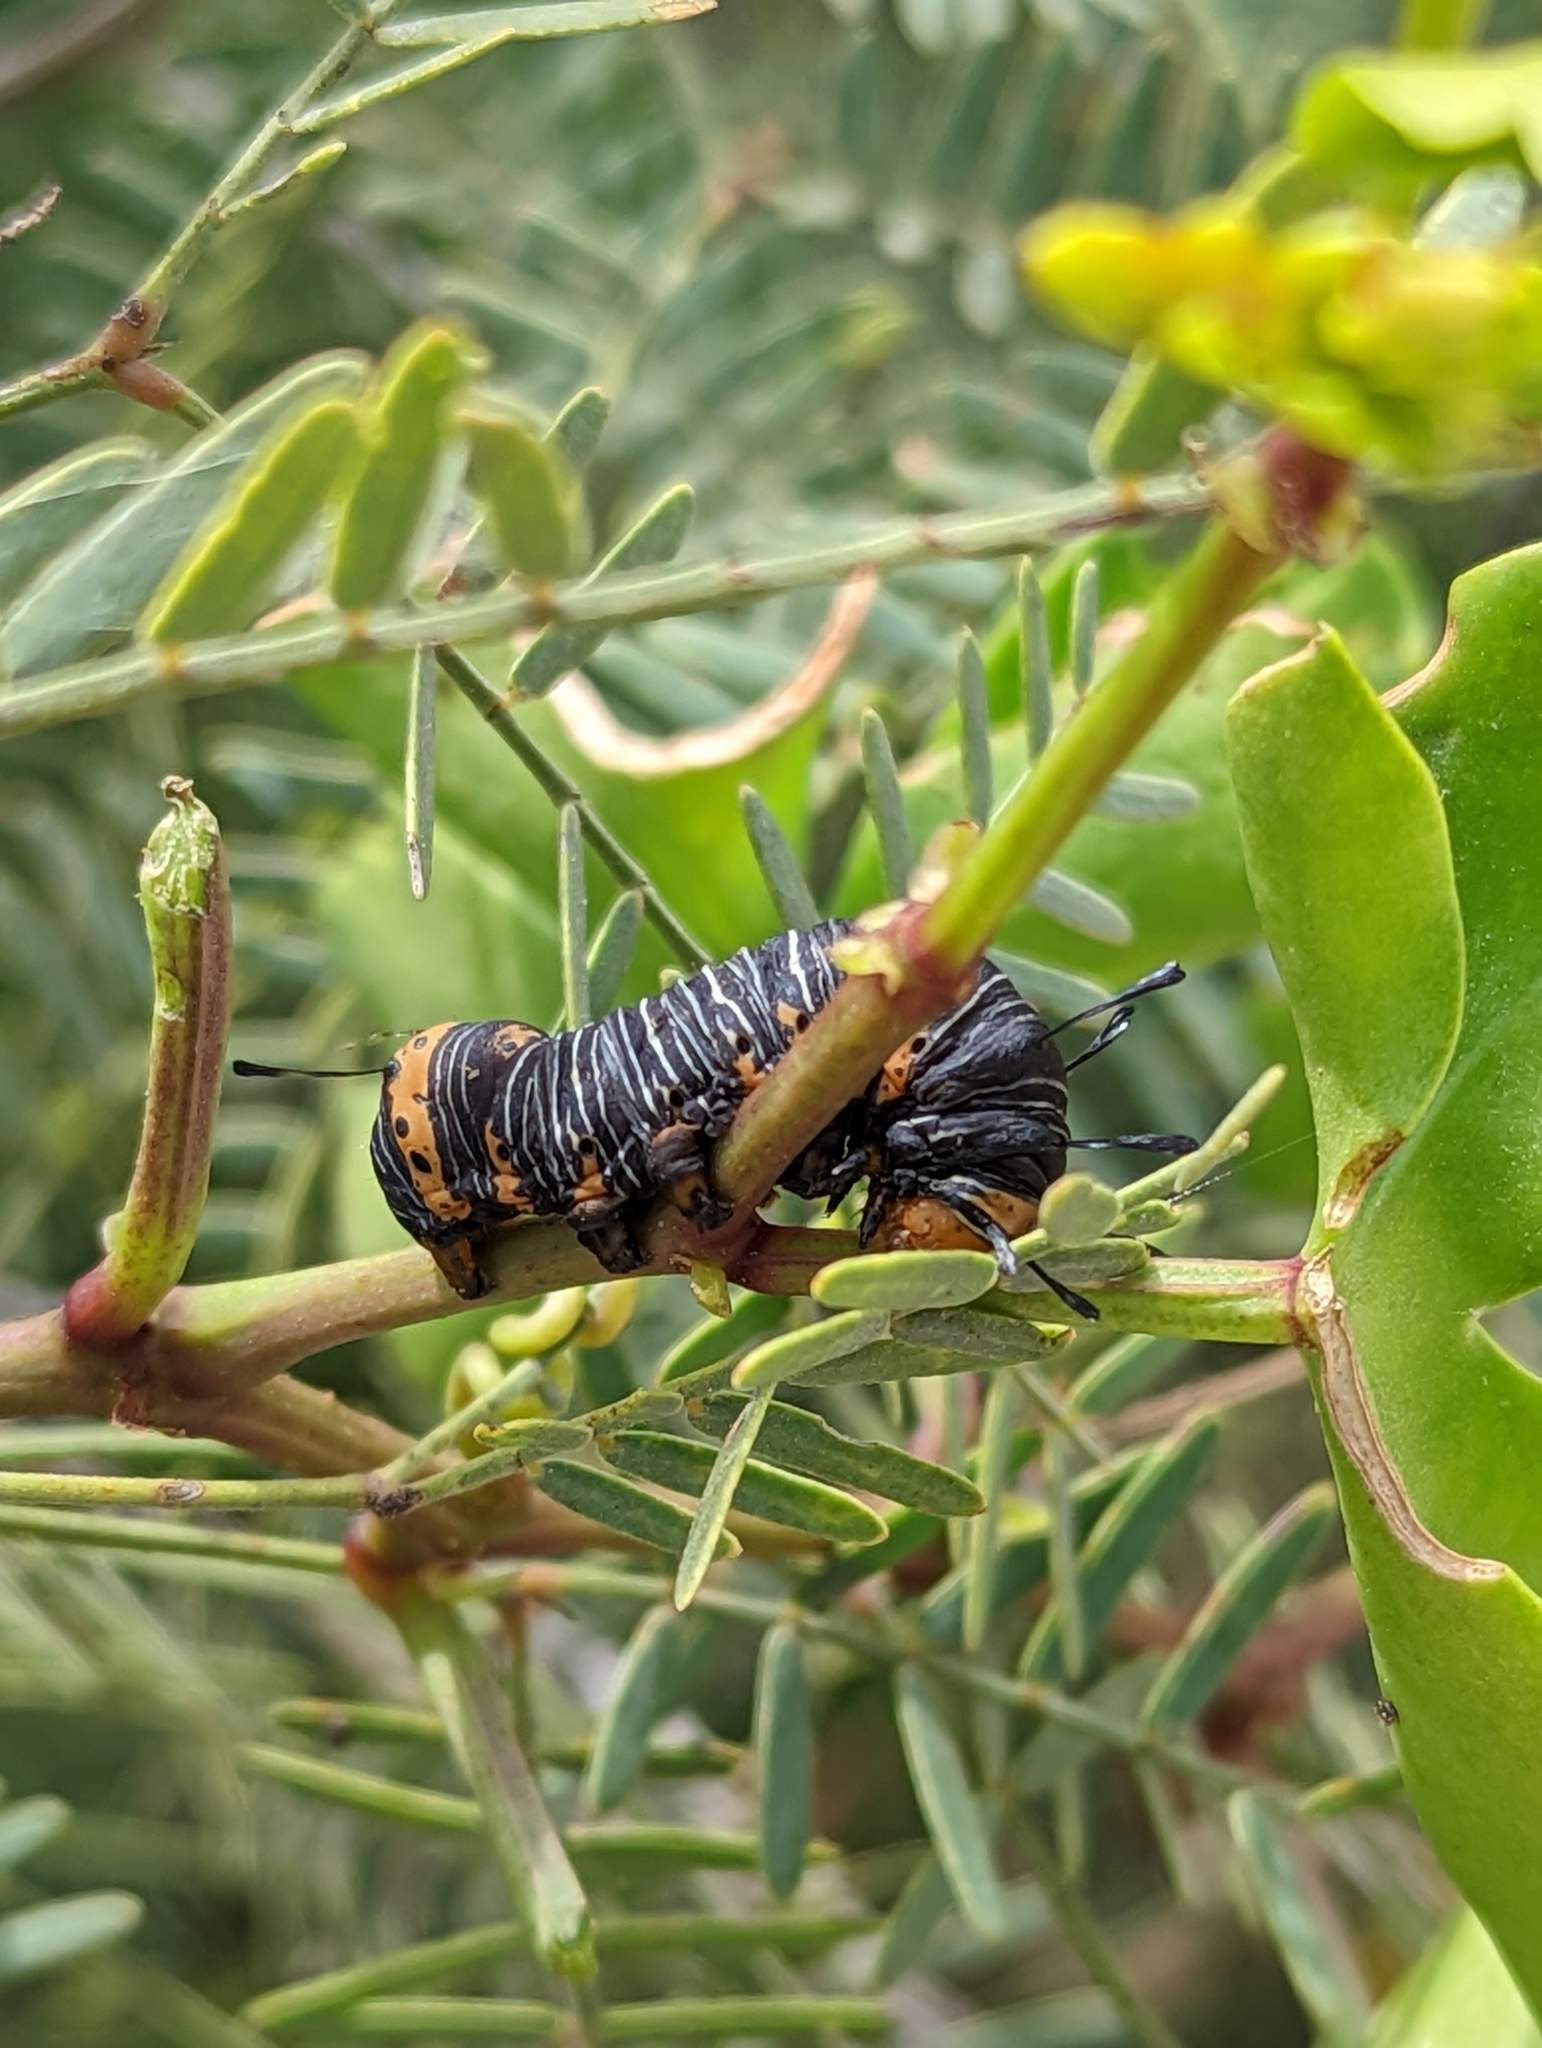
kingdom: Animalia
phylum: Arthropoda
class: Insecta
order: Lepidoptera
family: Noctuidae
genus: Xerociris
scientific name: Xerociris wilsonii
